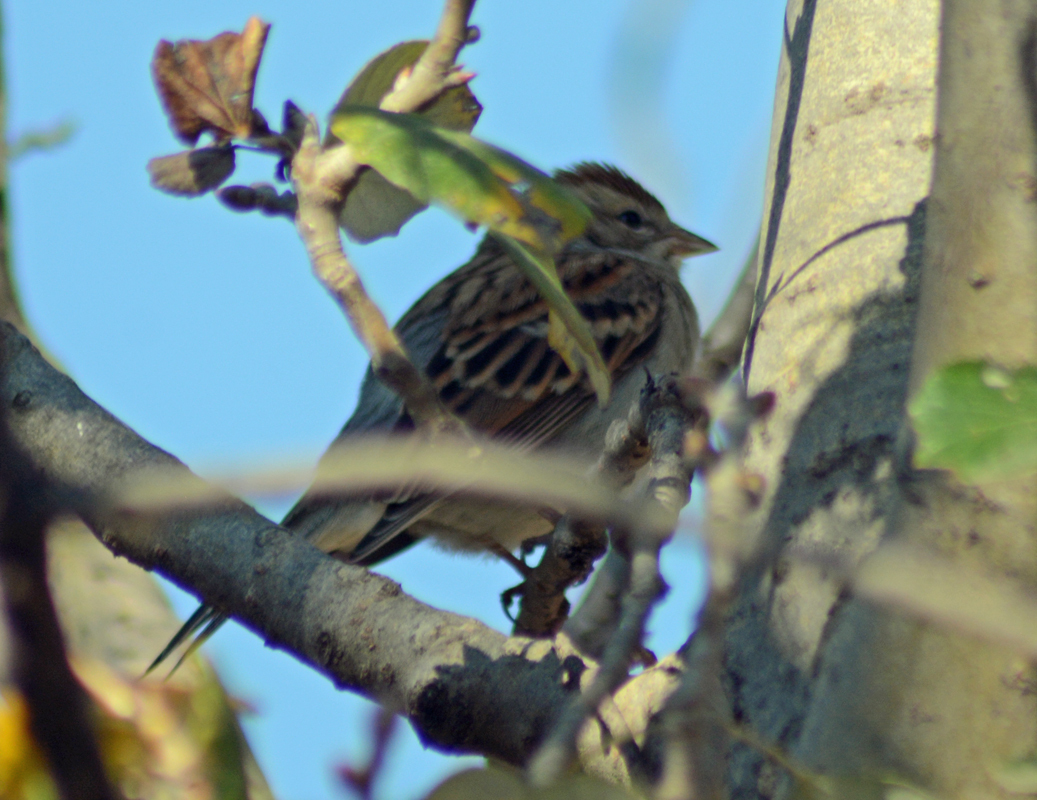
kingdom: Animalia
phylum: Chordata
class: Aves
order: Passeriformes
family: Passerellidae
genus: Spizella
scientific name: Spizella passerina
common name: Chipping sparrow
